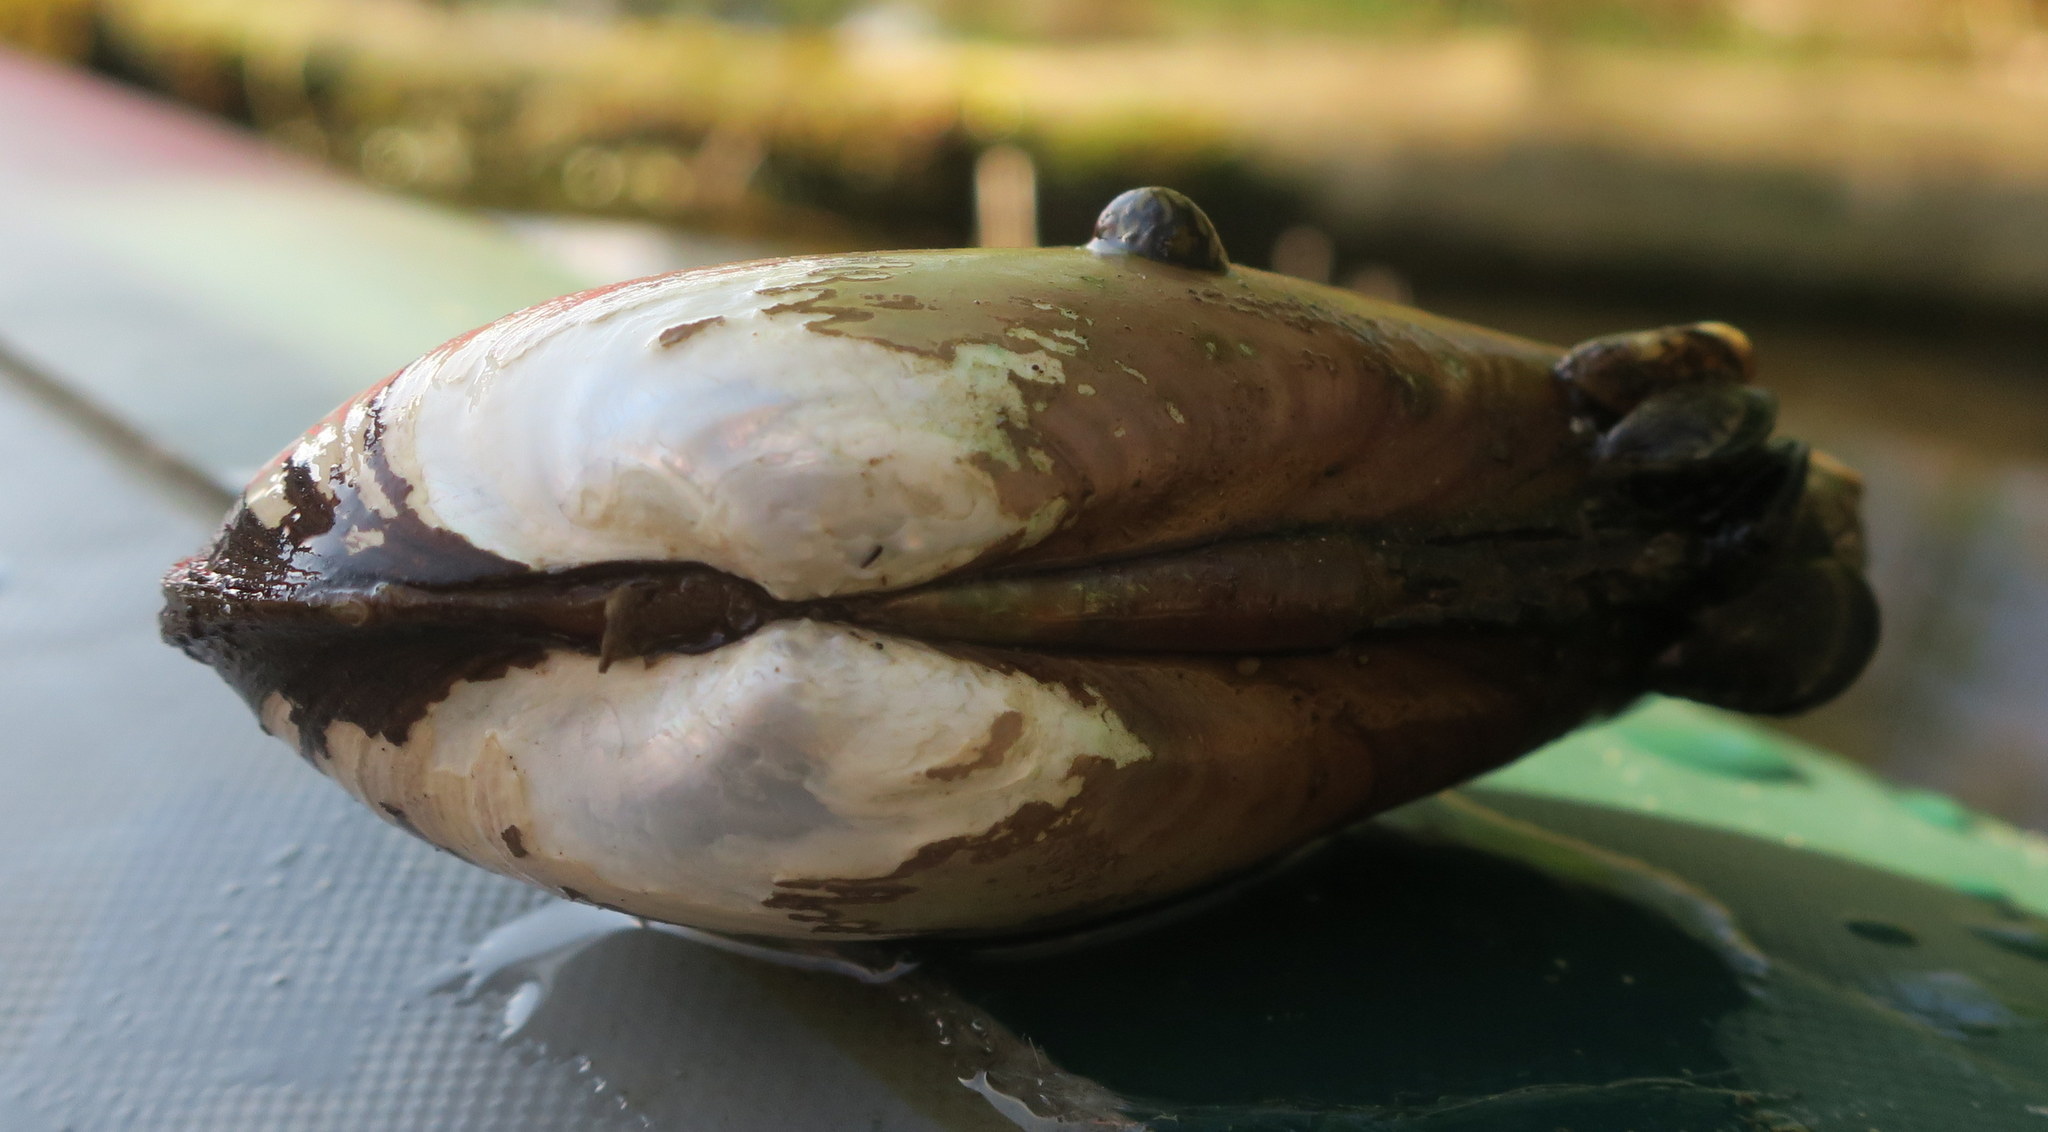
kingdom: Animalia
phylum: Mollusca
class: Bivalvia
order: Unionida
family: Unionidae
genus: Unio
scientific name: Unio tumidus
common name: Swollen river mussel
